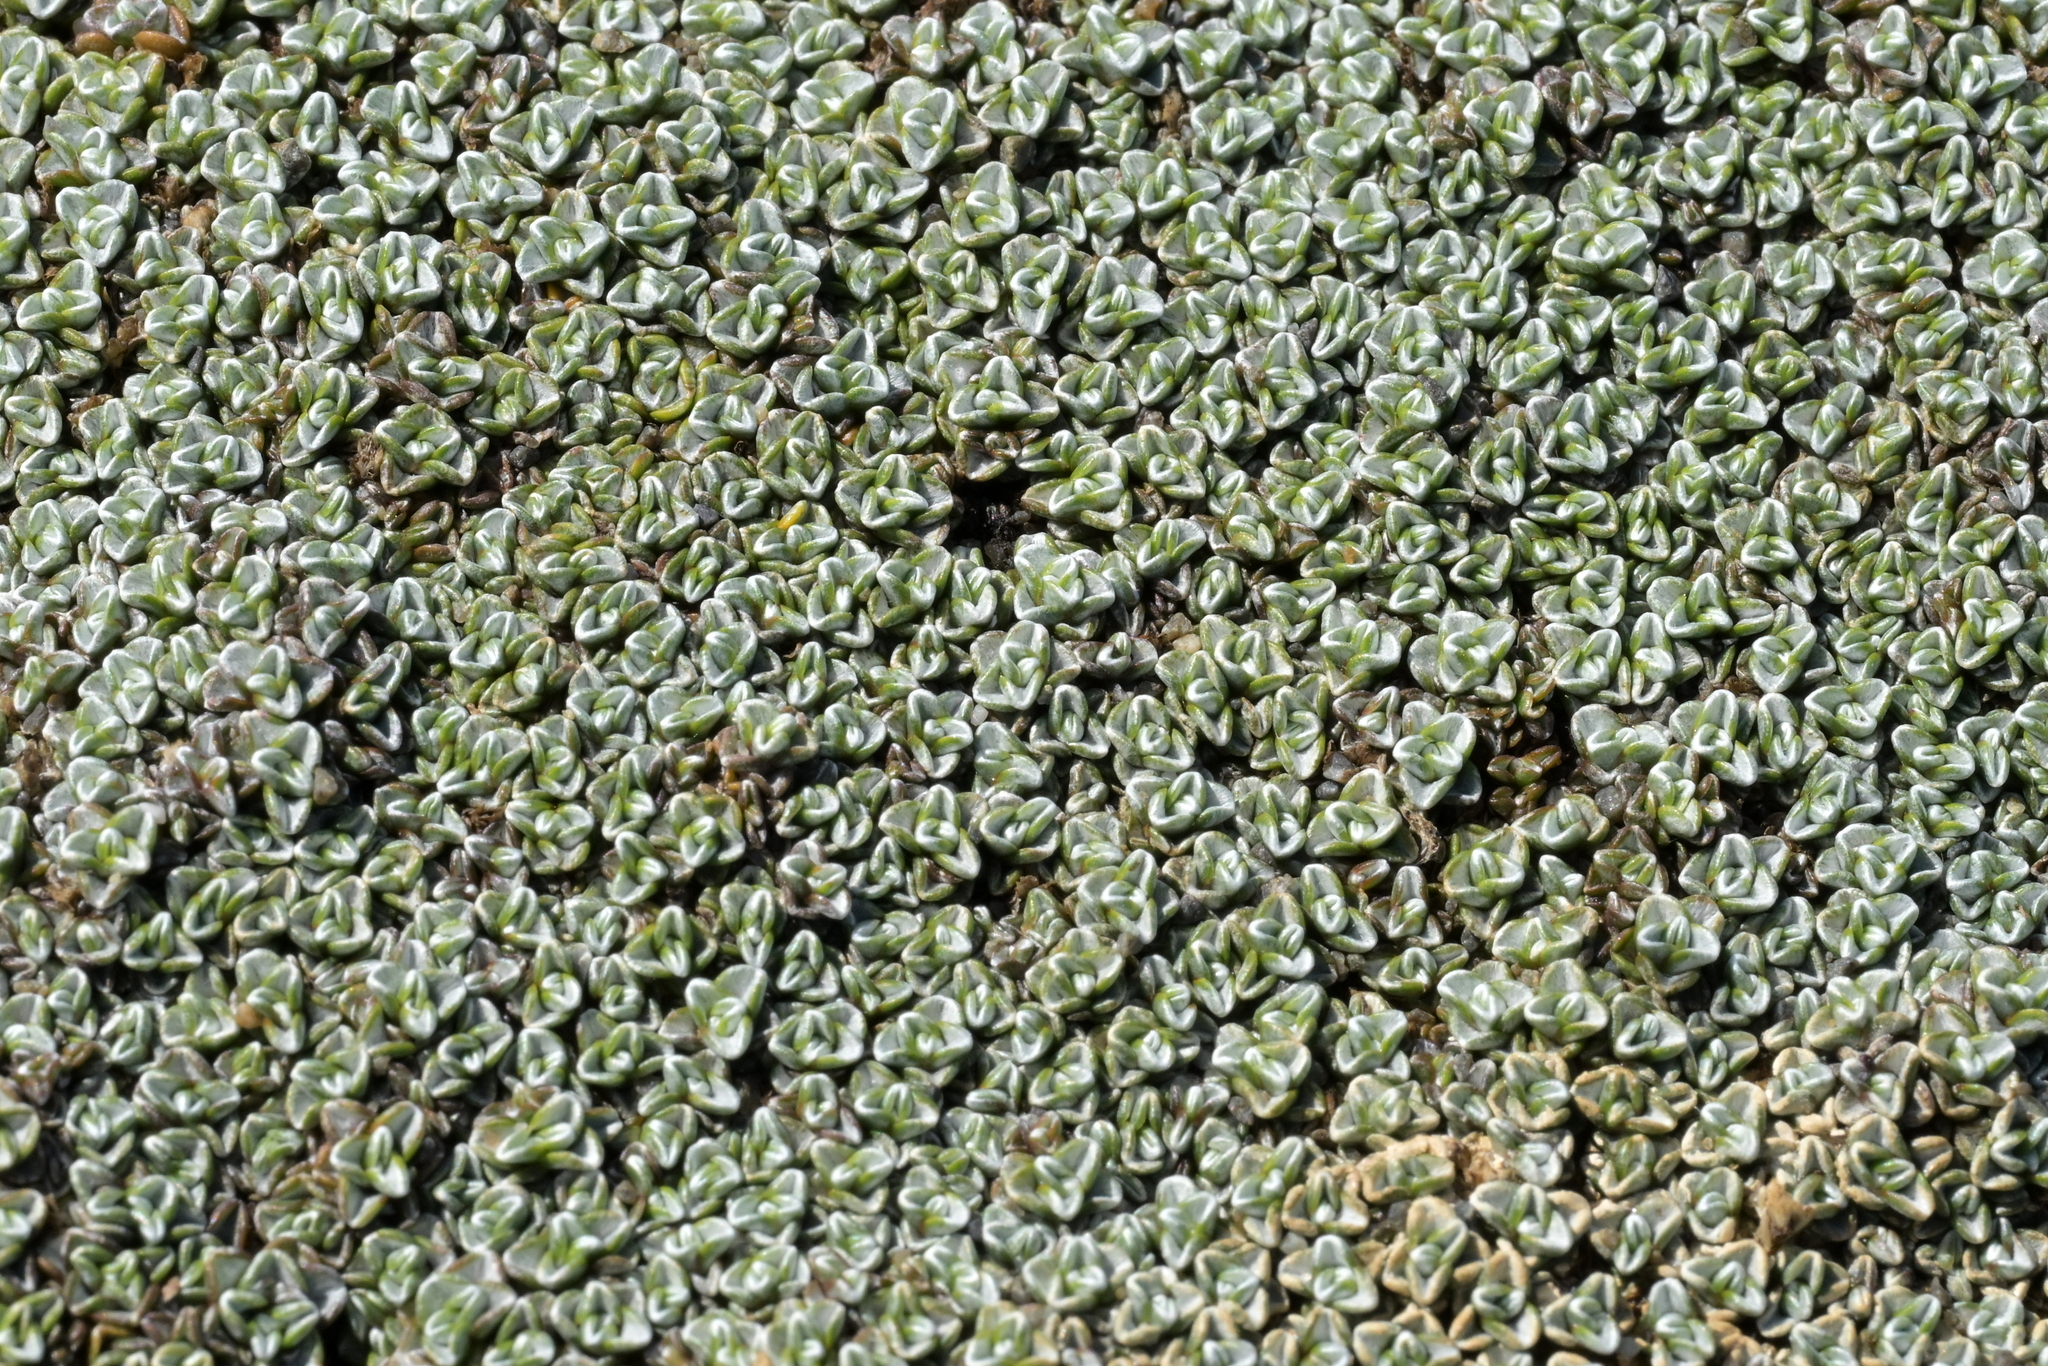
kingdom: Plantae
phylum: Tracheophyta
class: Magnoliopsida
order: Asterales
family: Asteraceae
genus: Raoulia
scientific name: Raoulia hookeri
